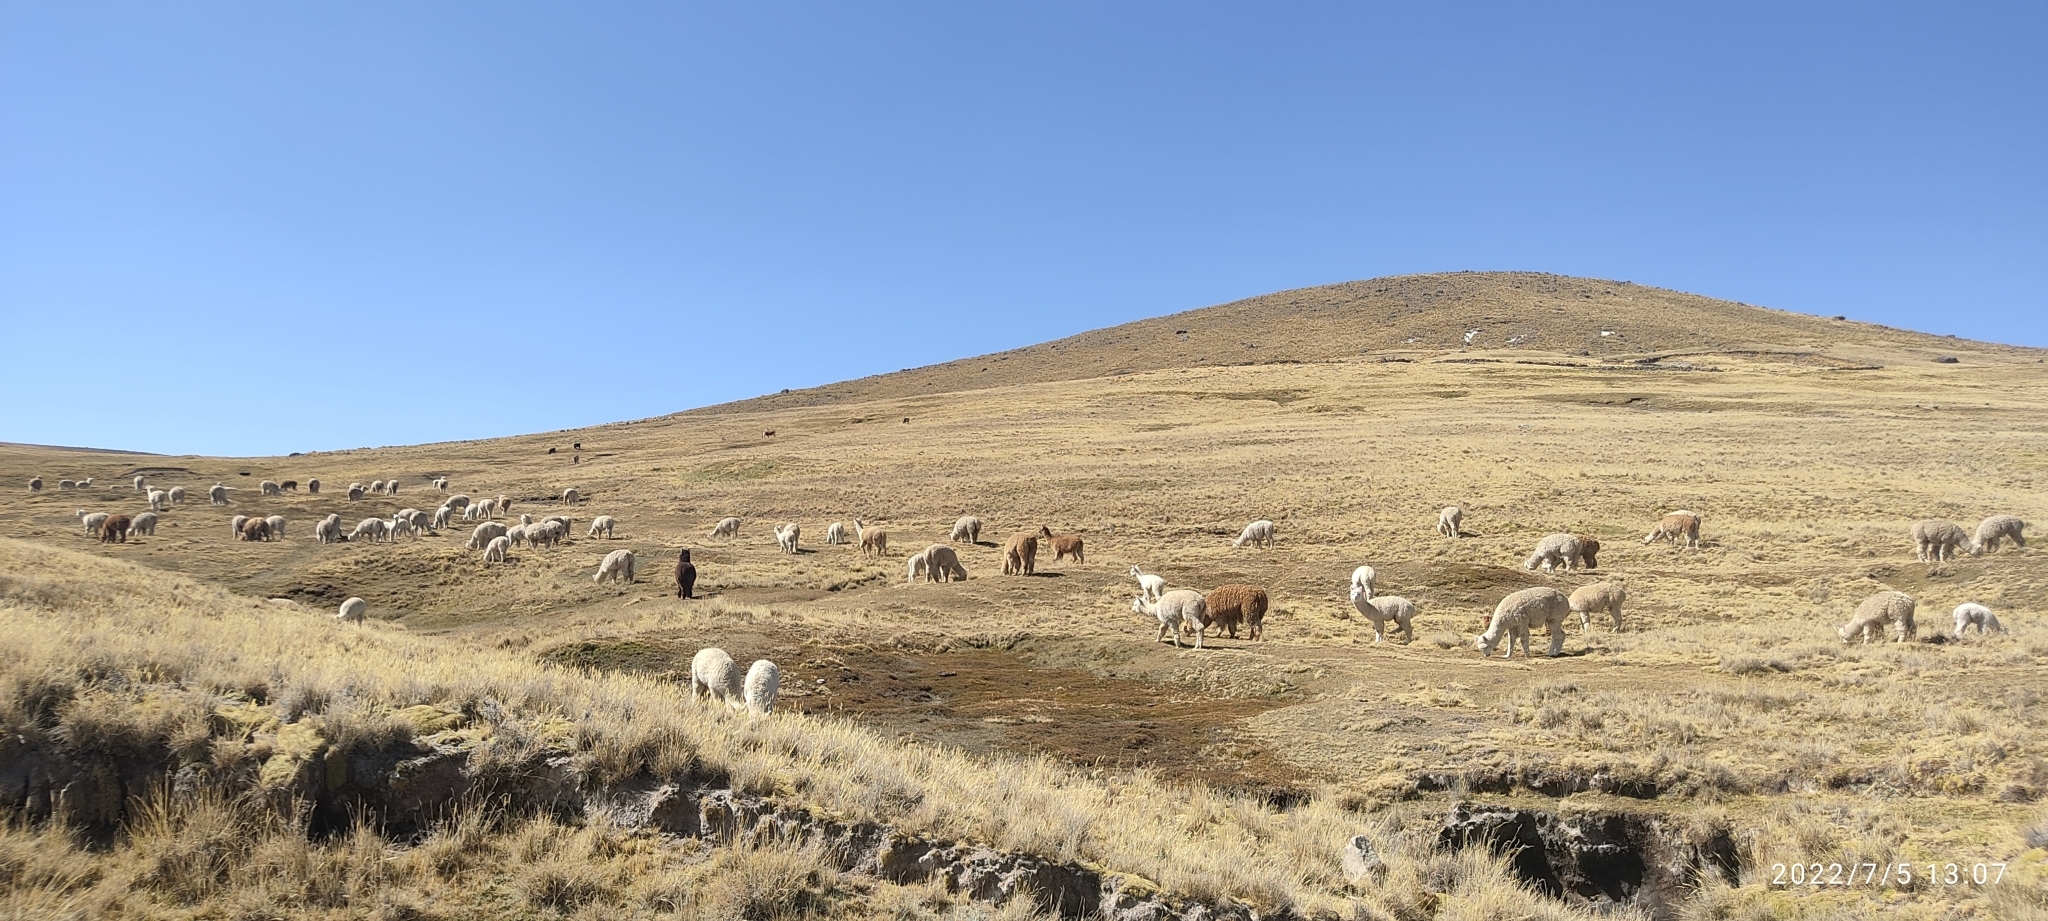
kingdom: Animalia
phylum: Chordata
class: Mammalia
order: Artiodactyla
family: Camelidae
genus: Vicugna
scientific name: Vicugna pacos
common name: Alpaca
